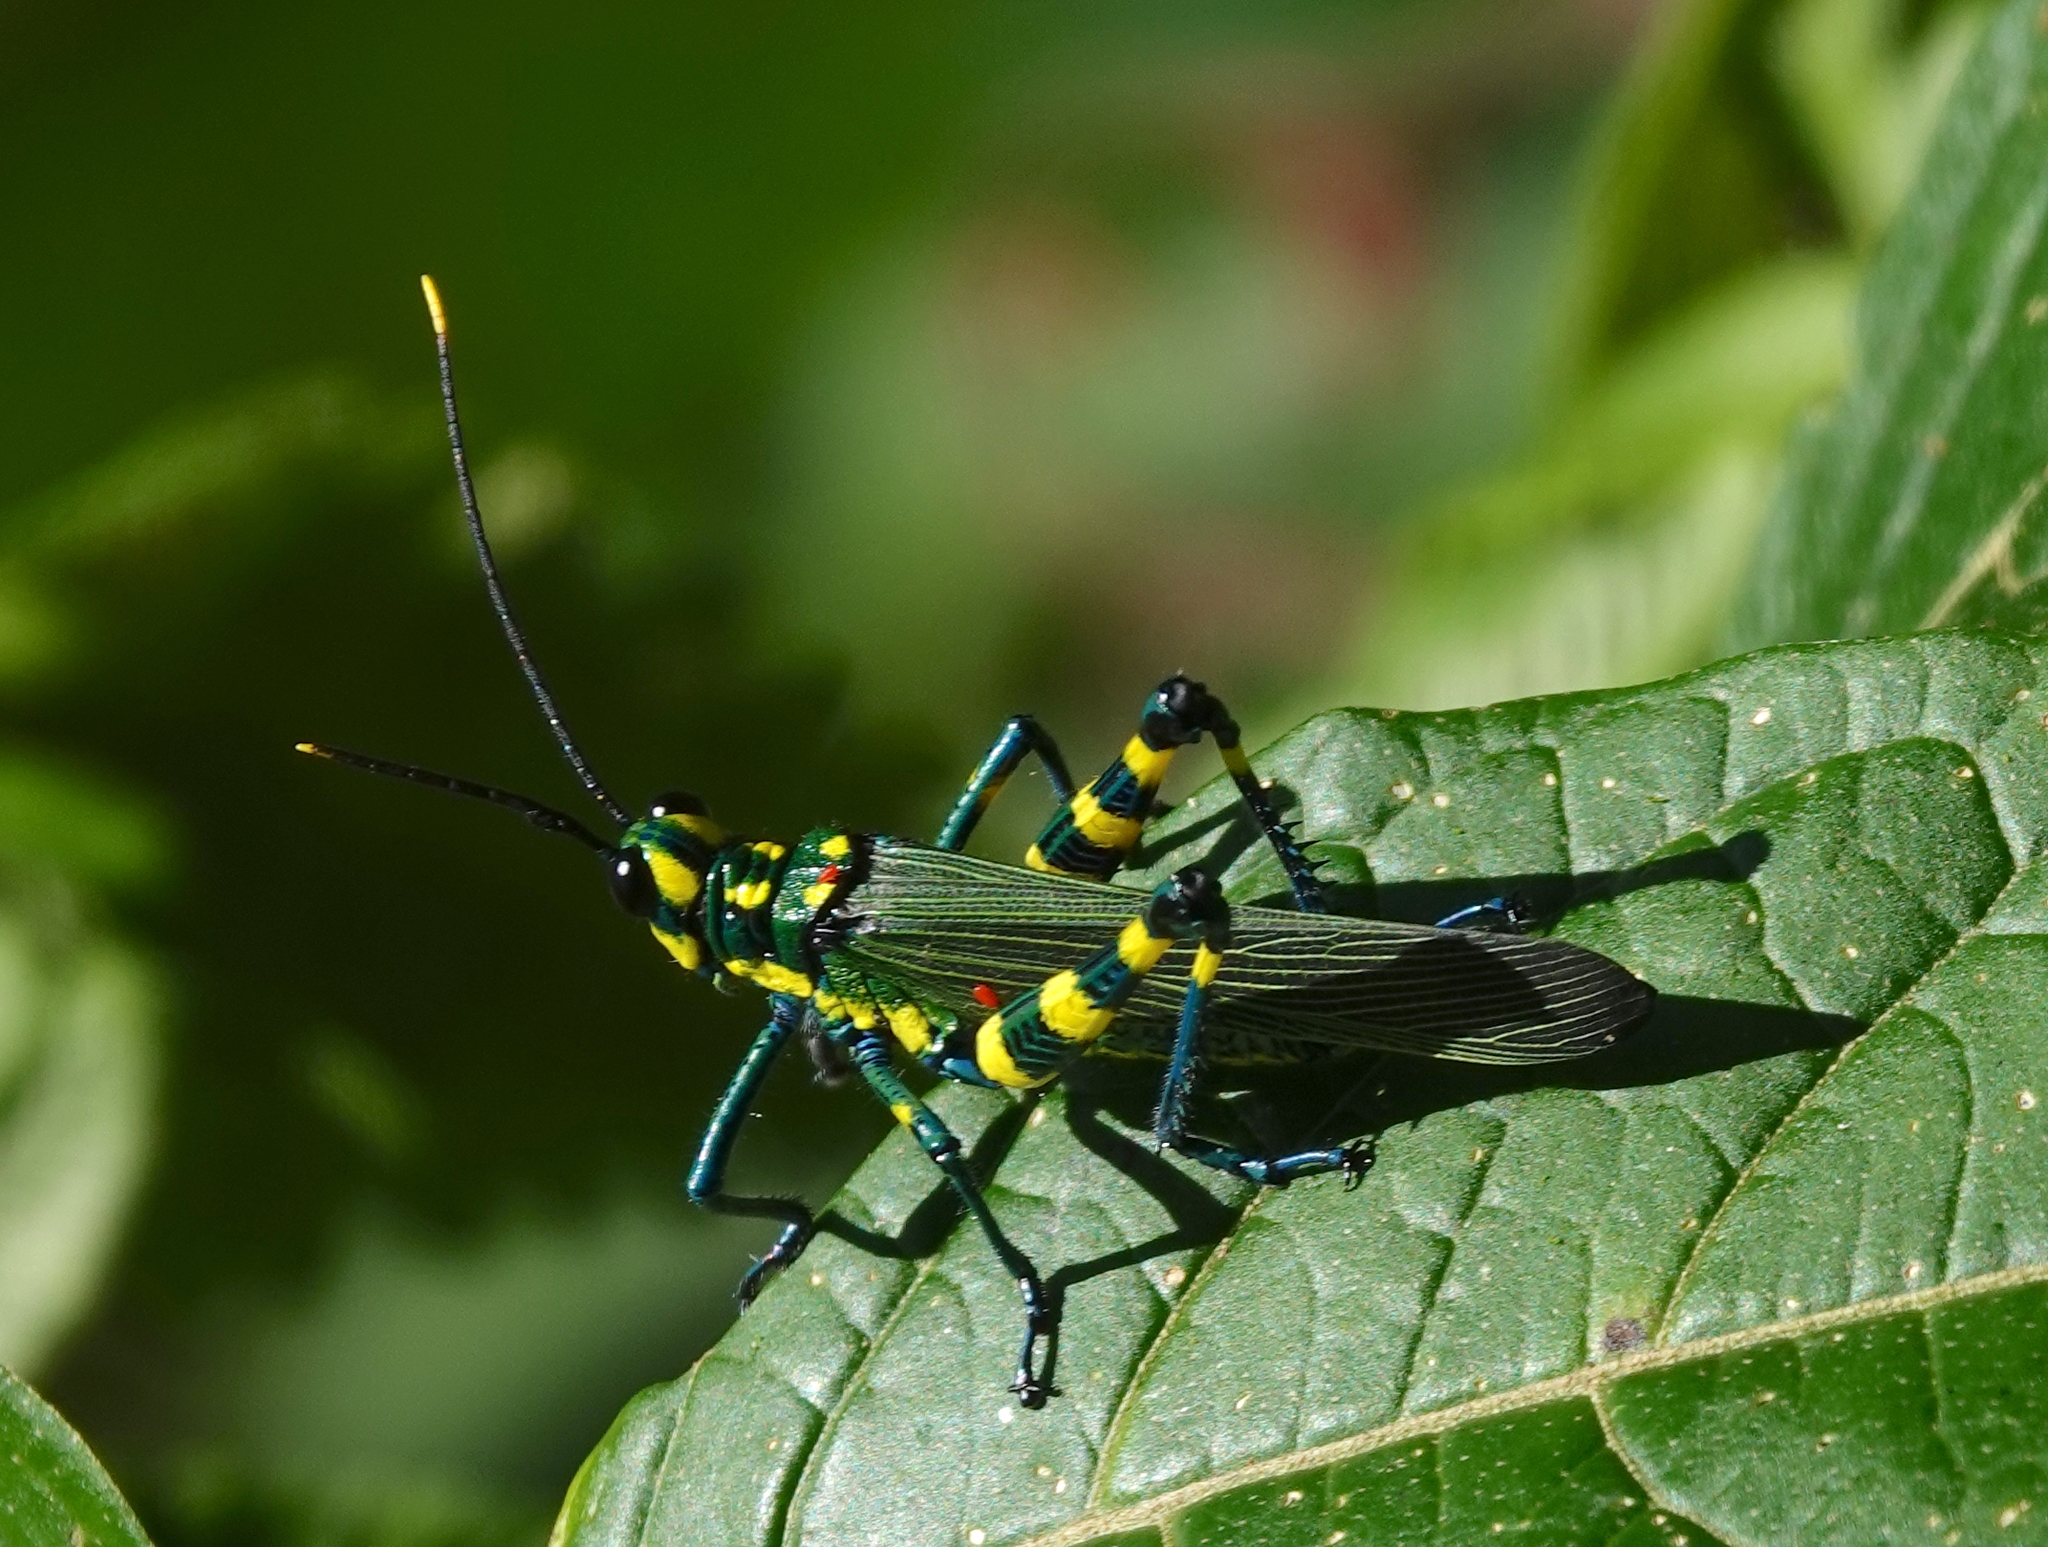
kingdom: Animalia
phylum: Arthropoda
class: Insecta
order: Orthoptera
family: Romaleidae
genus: Chromacris
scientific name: Chromacris icterus
